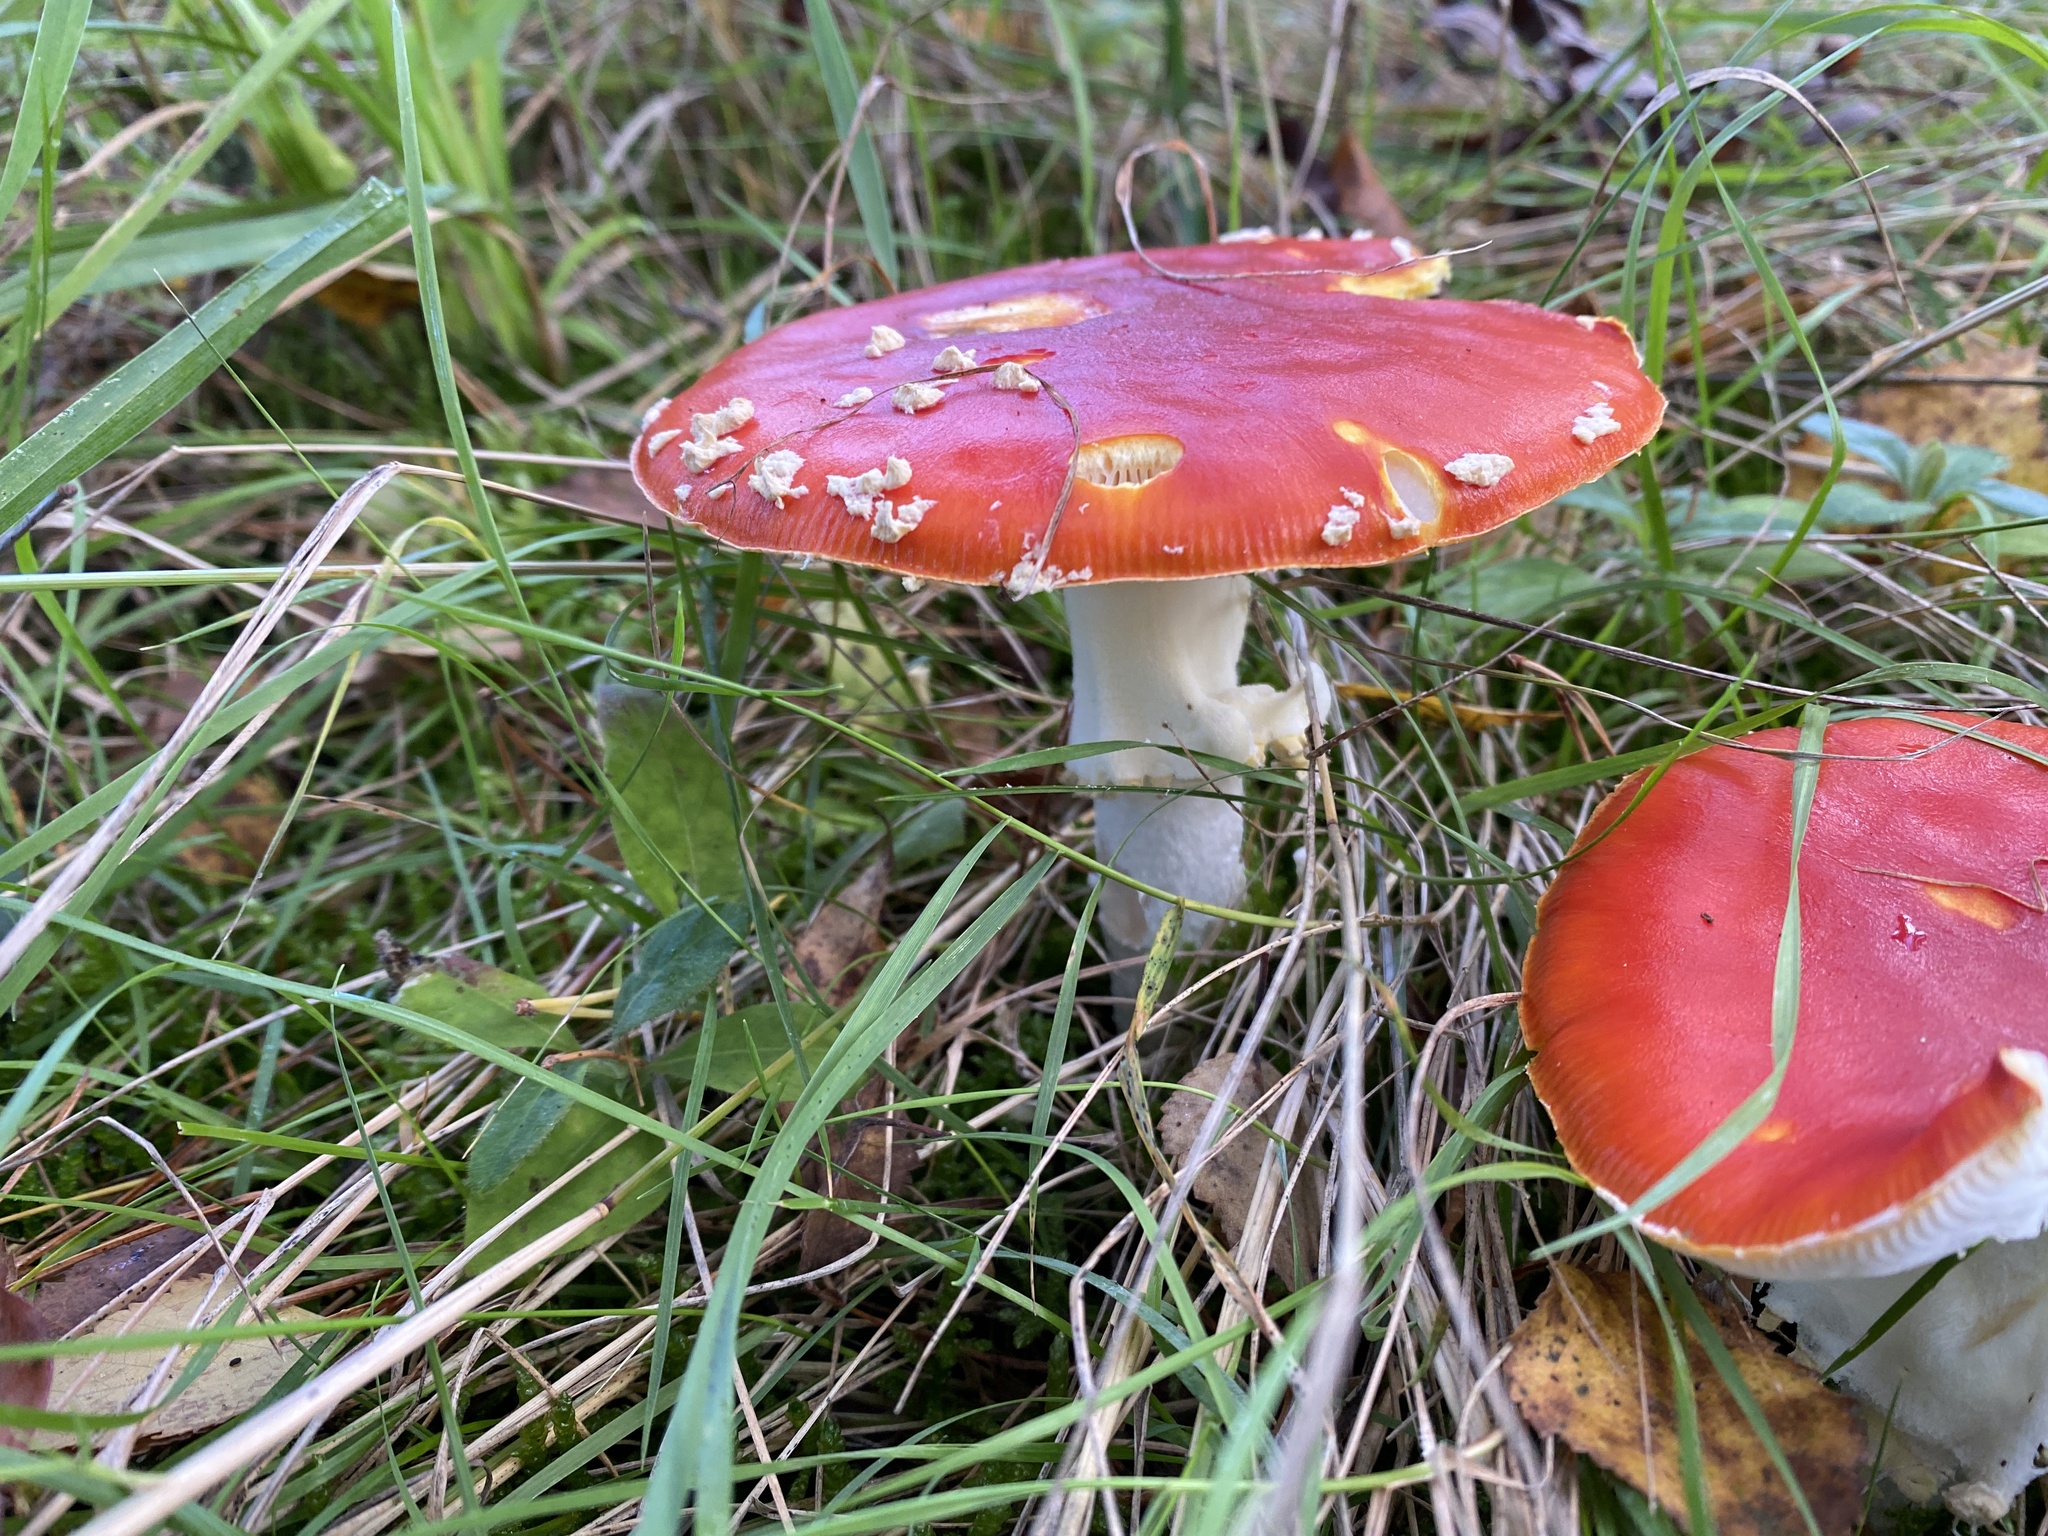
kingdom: Fungi
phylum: Basidiomycota
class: Agaricomycetes
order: Agaricales
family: Amanitaceae
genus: Amanita
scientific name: Amanita muscaria
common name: Fly agaric
